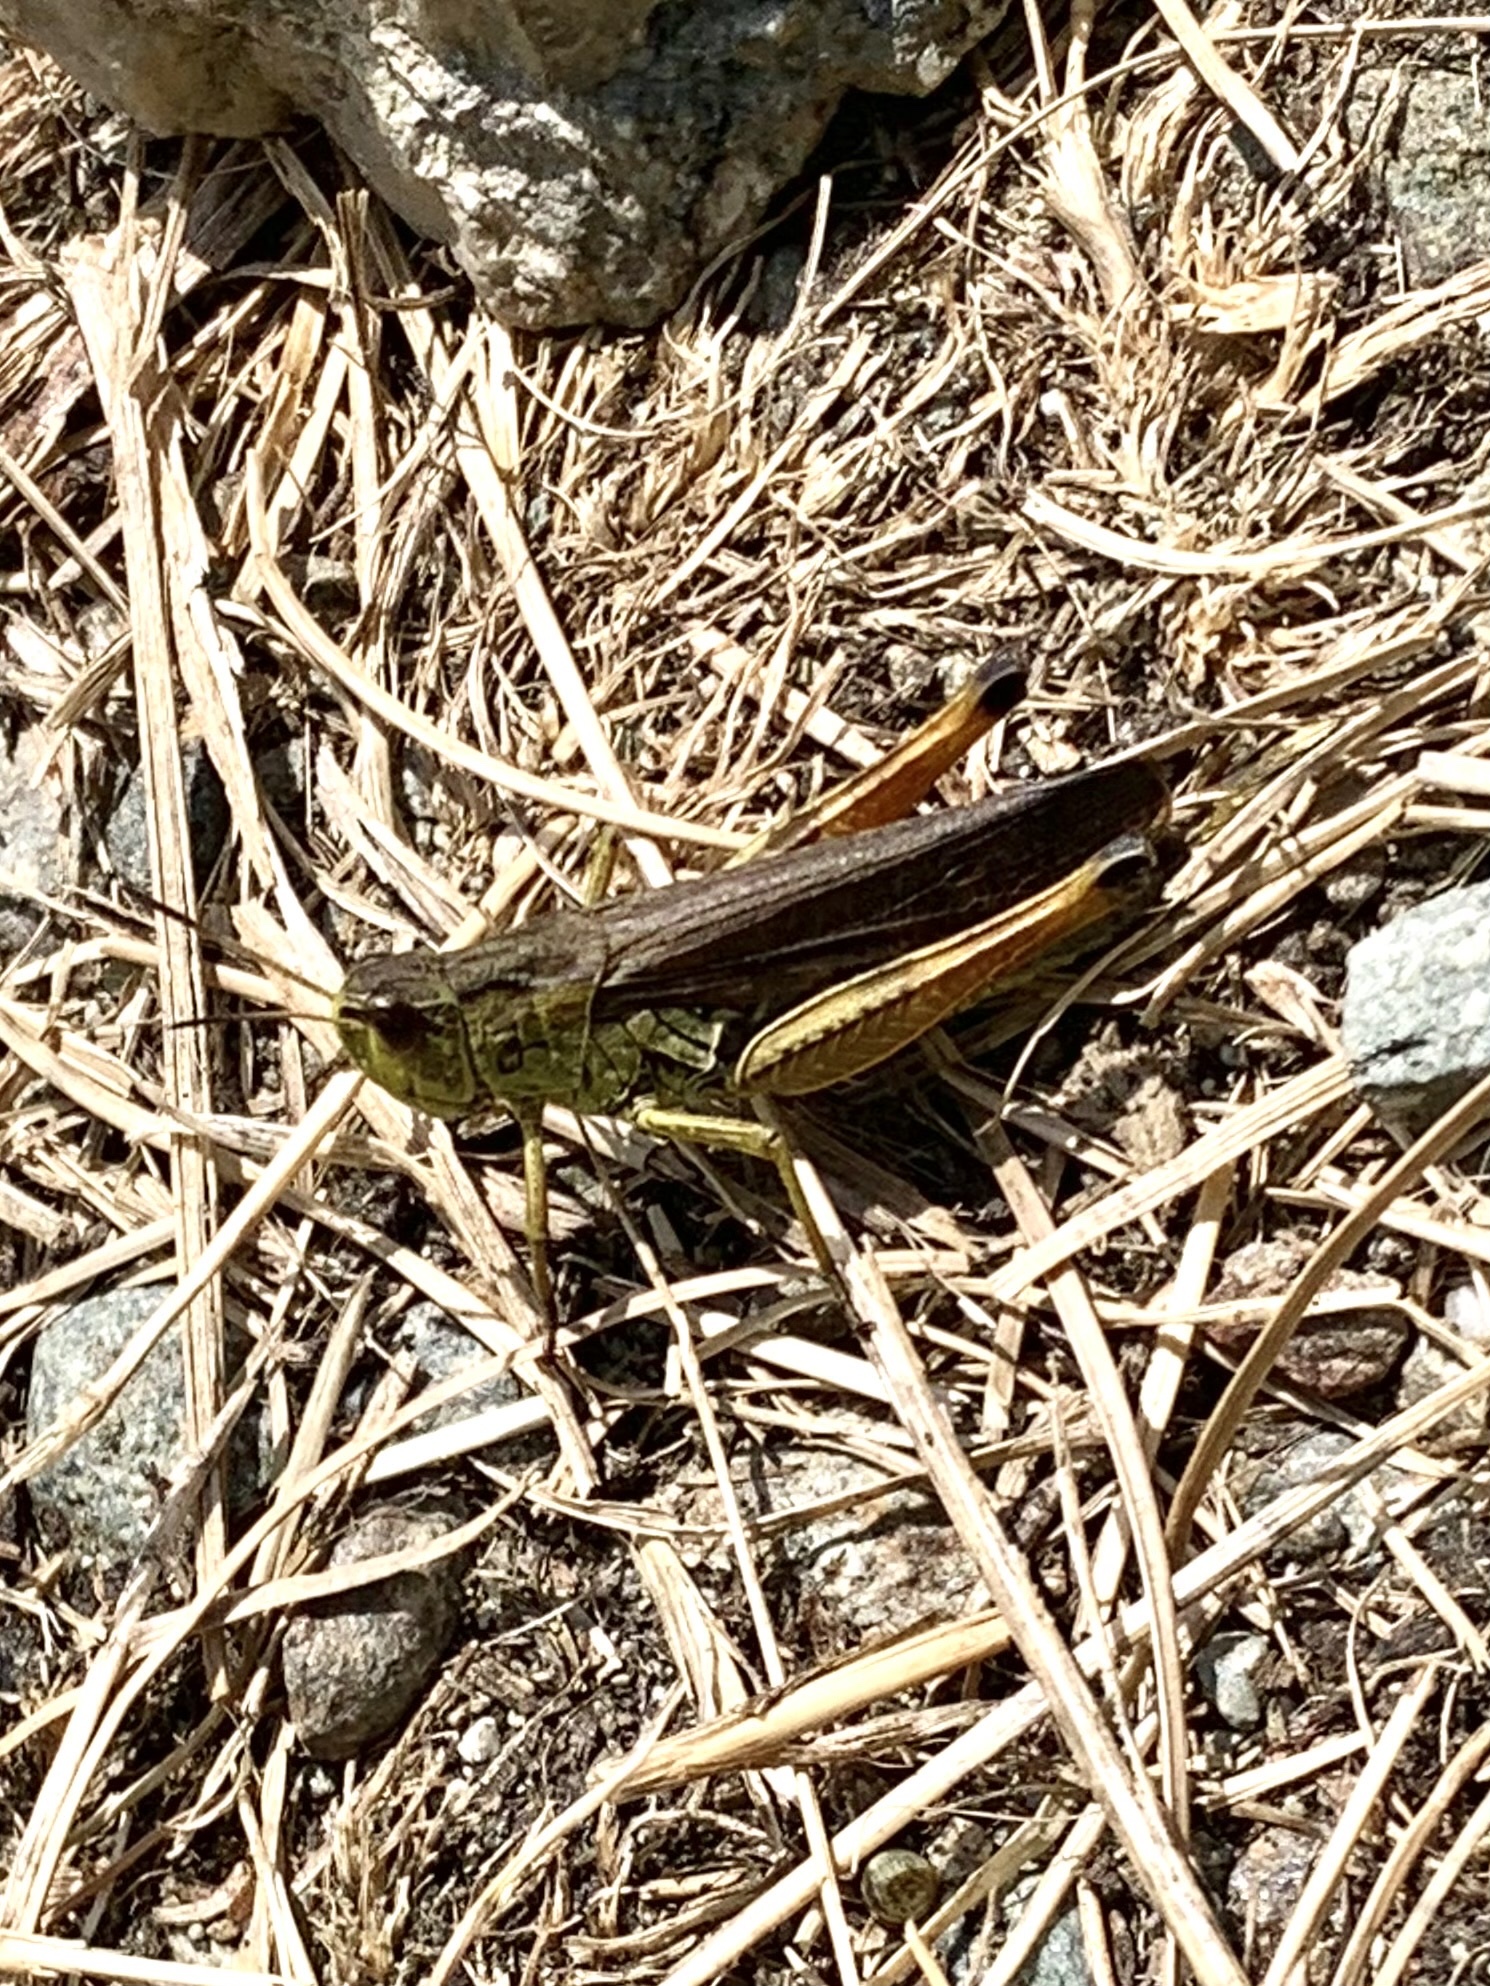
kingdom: Animalia
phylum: Arthropoda
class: Insecta
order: Orthoptera
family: Acrididae
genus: Stauroderus
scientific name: Stauroderus scalaris
